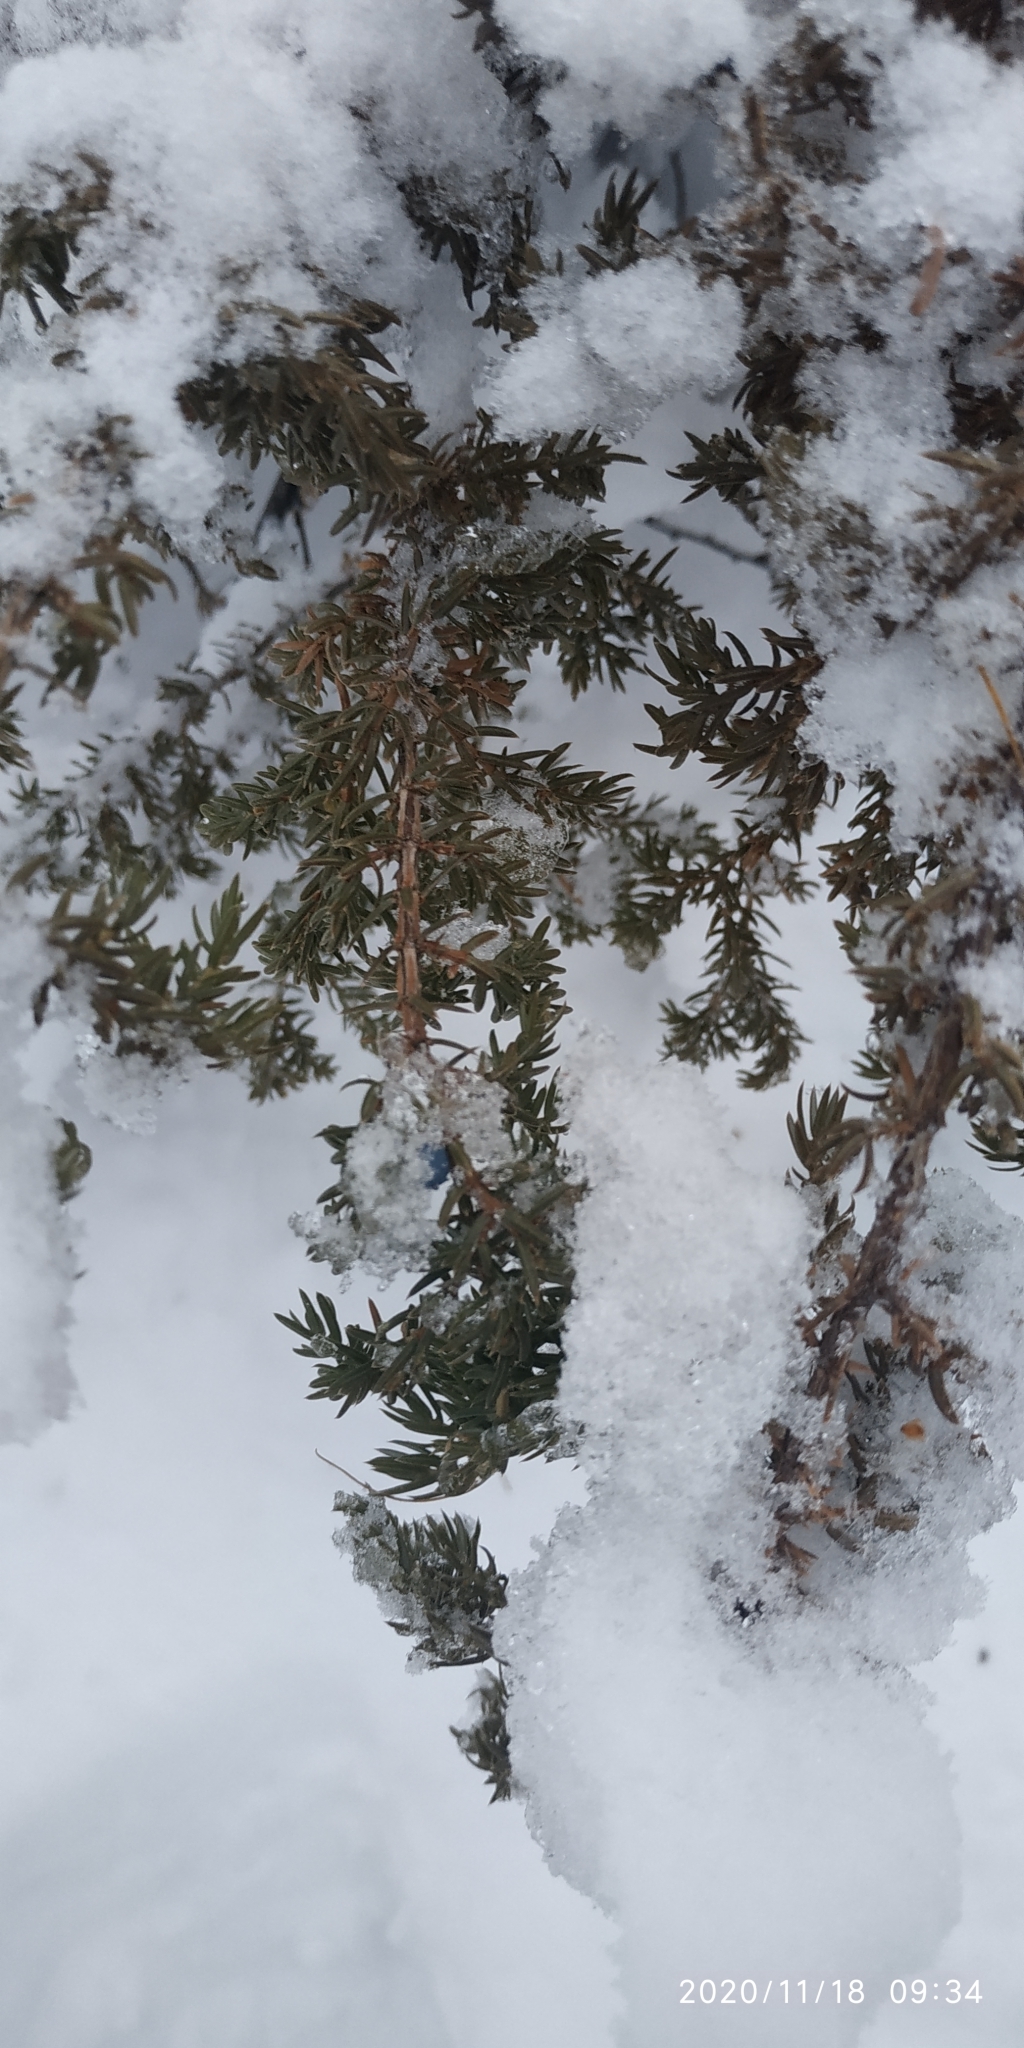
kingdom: Plantae
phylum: Tracheophyta
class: Pinopsida
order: Pinales
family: Cupressaceae
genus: Juniperus
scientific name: Juniperus communis
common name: Common juniper
